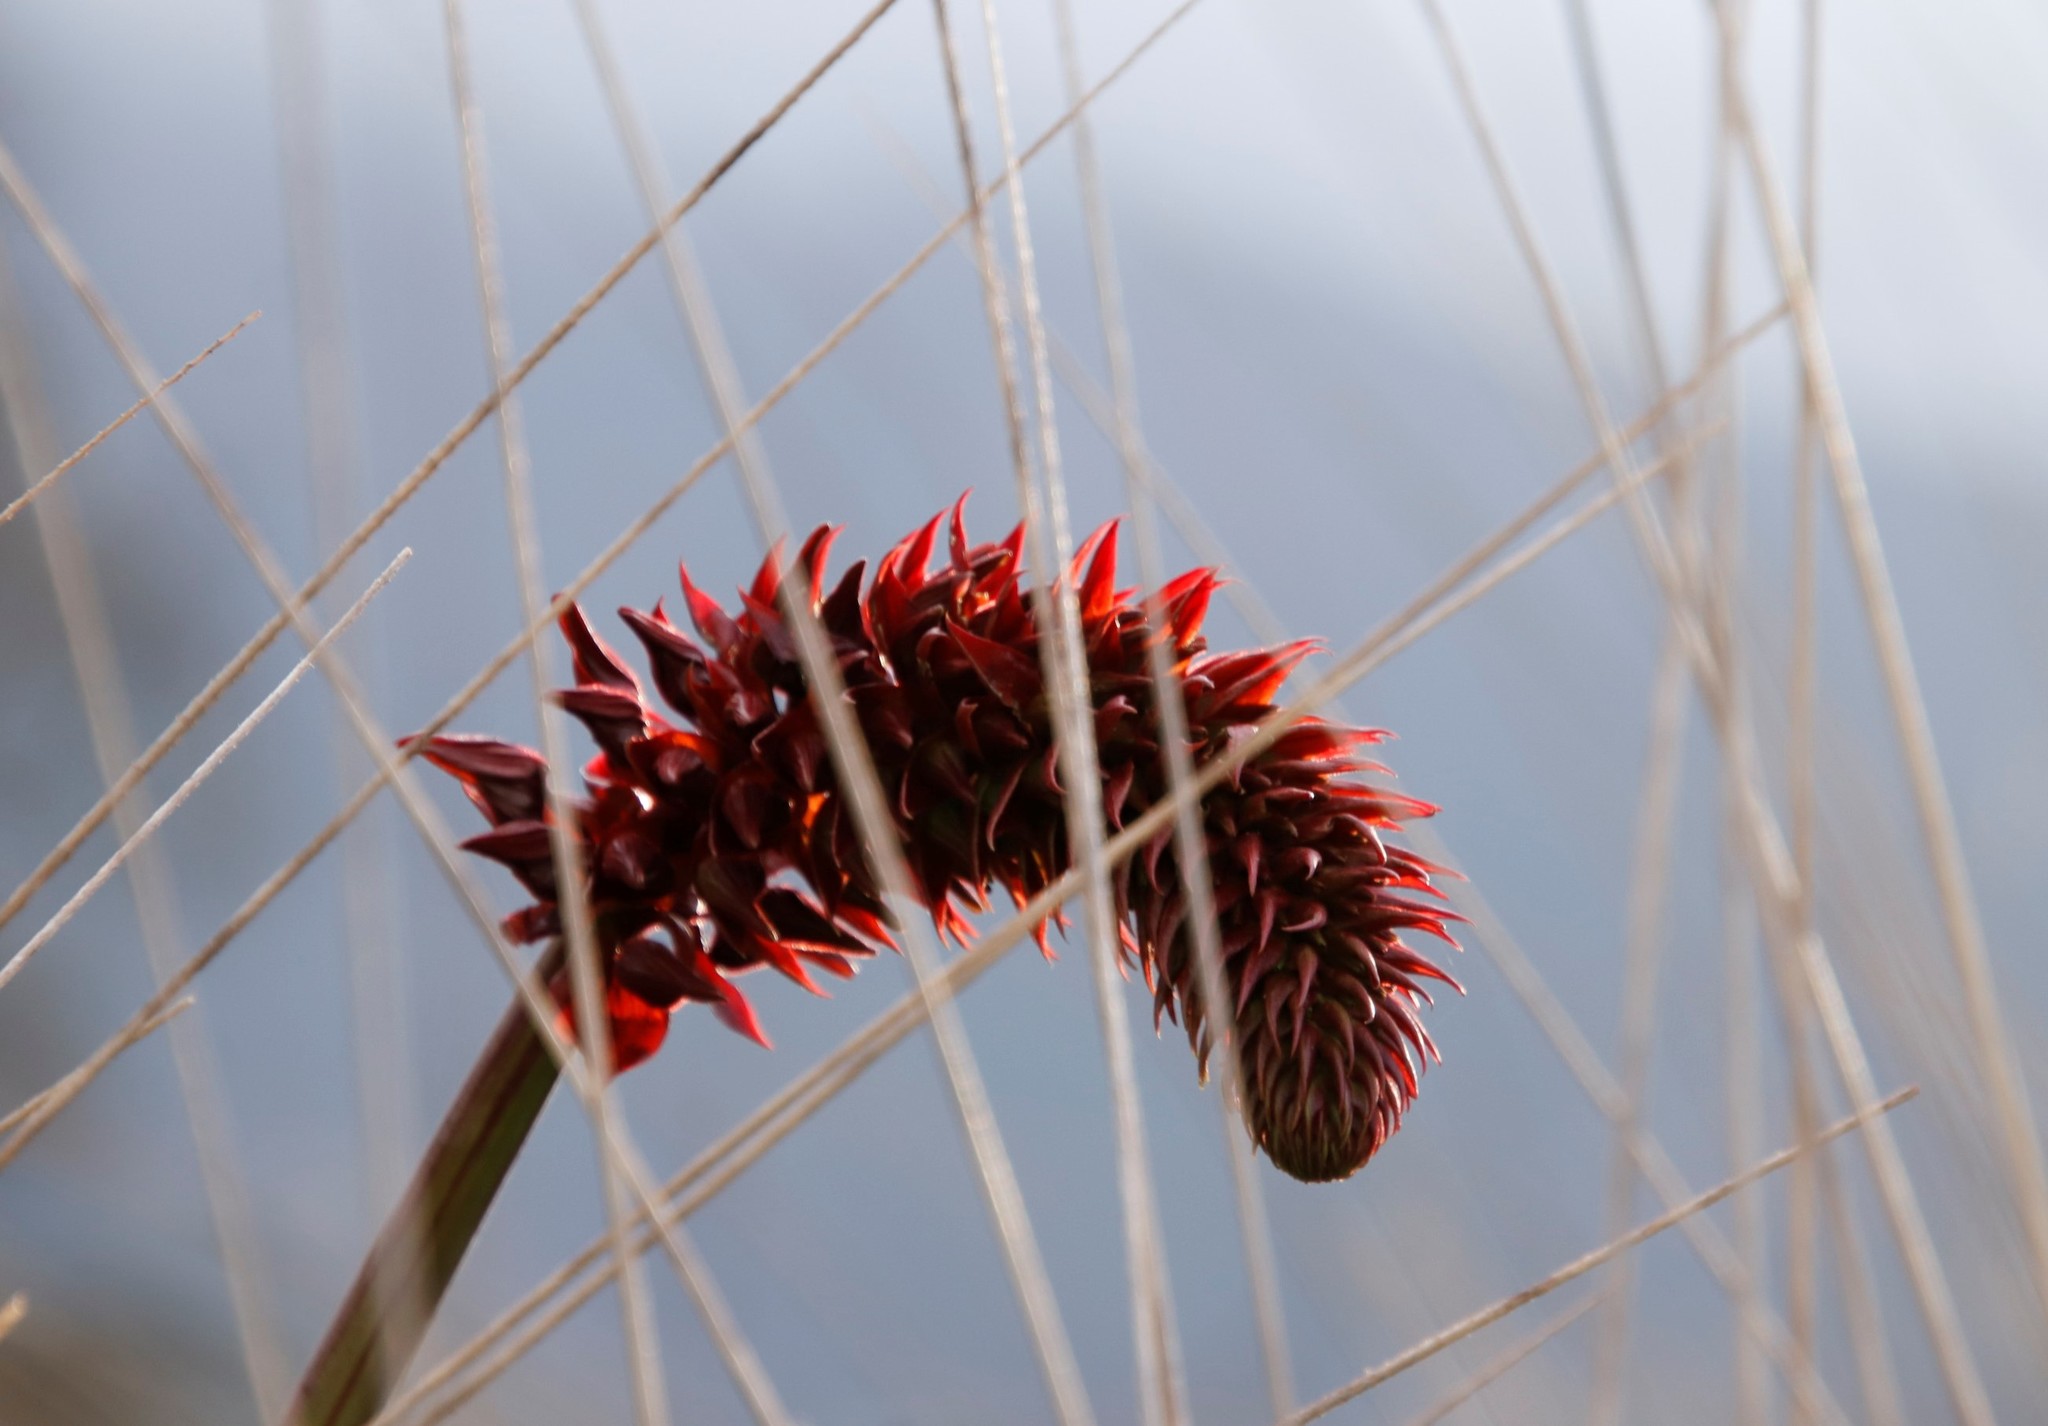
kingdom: Plantae
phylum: Tracheophyta
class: Magnoliopsida
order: Geraniales
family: Melianthaceae
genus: Melianthus
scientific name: Melianthus major
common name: Honey-flower
